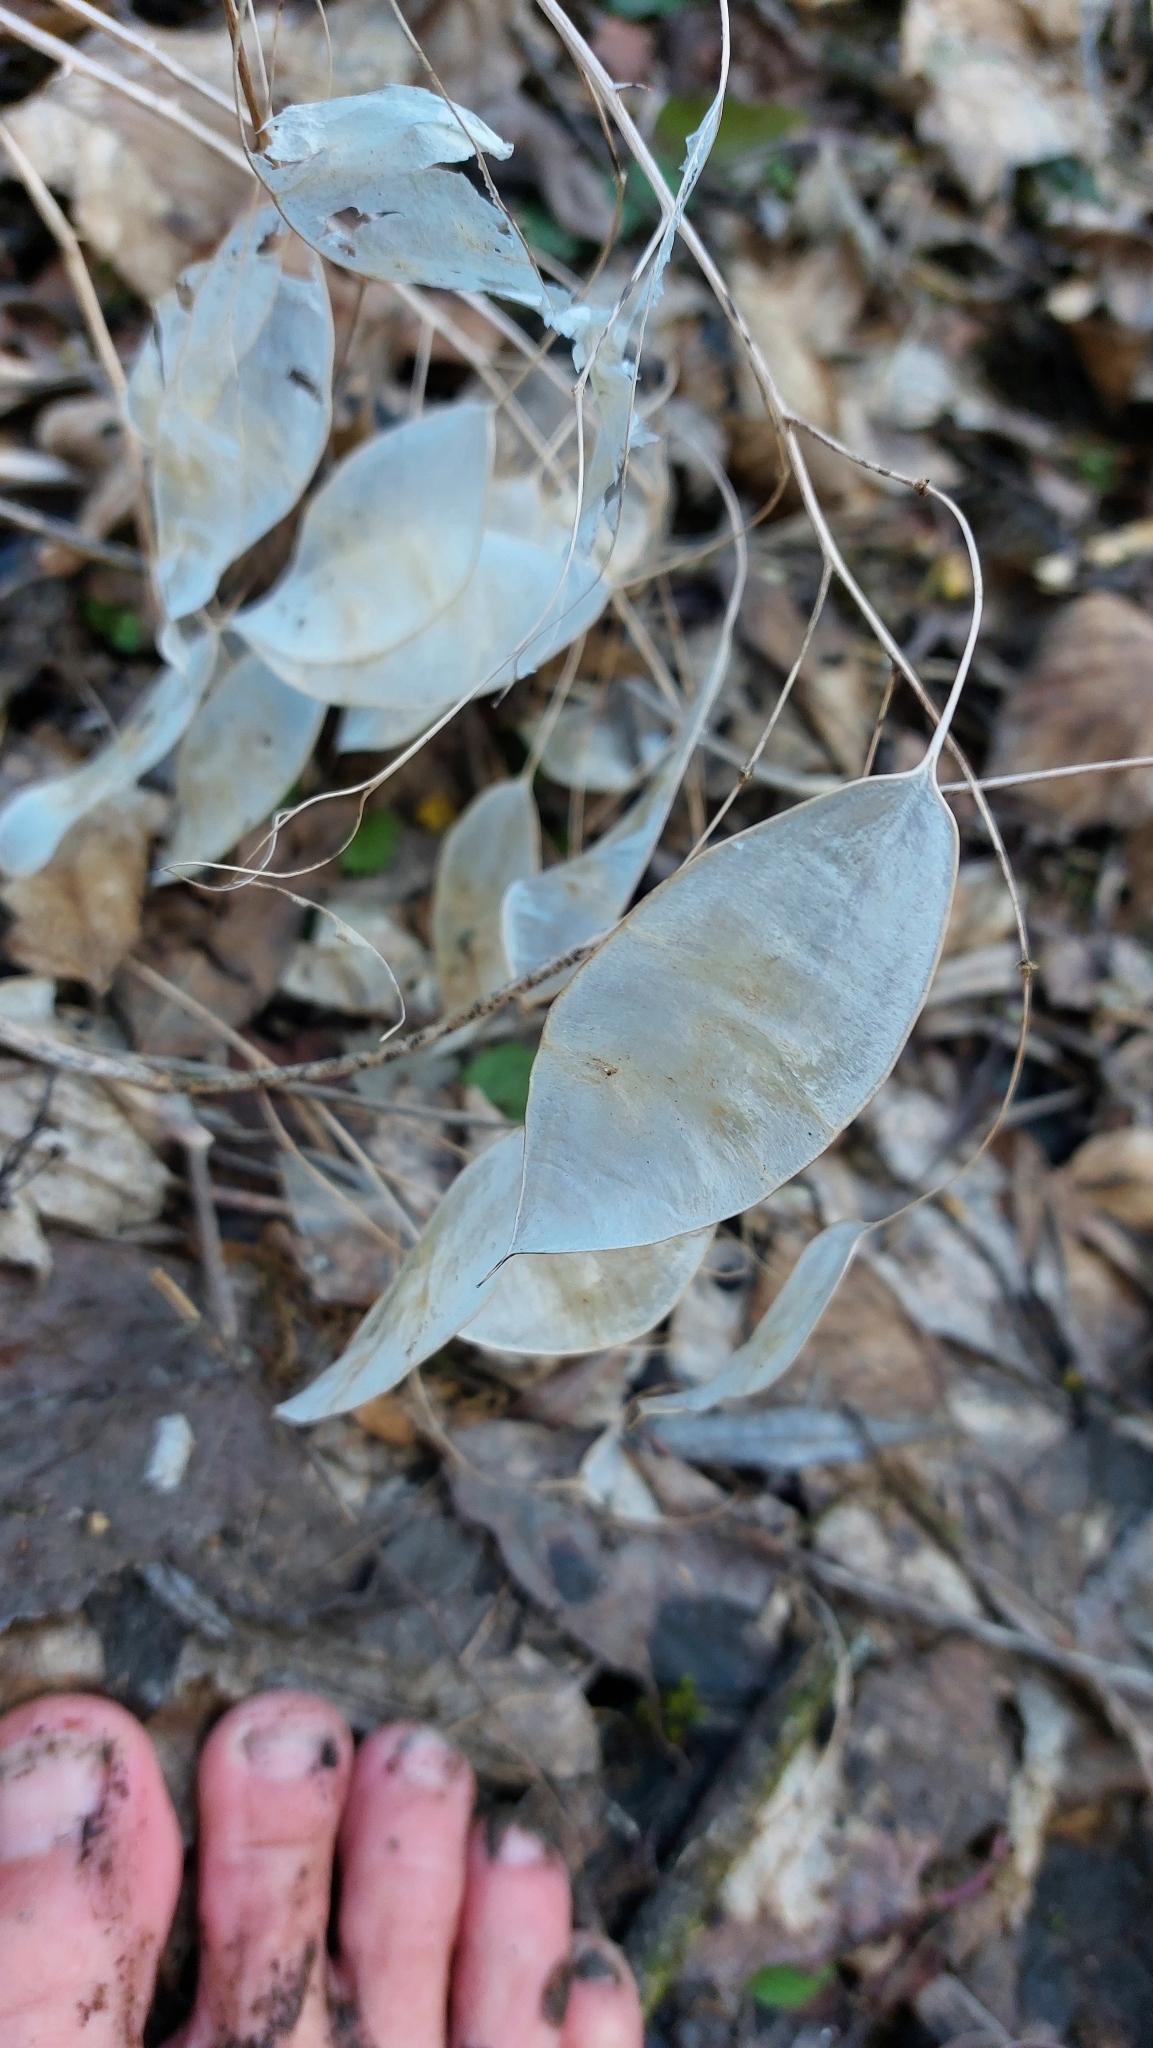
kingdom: Plantae
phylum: Tracheophyta
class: Magnoliopsida
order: Brassicales
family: Brassicaceae
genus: Lunaria
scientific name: Lunaria rediviva
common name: Perennial honesty
